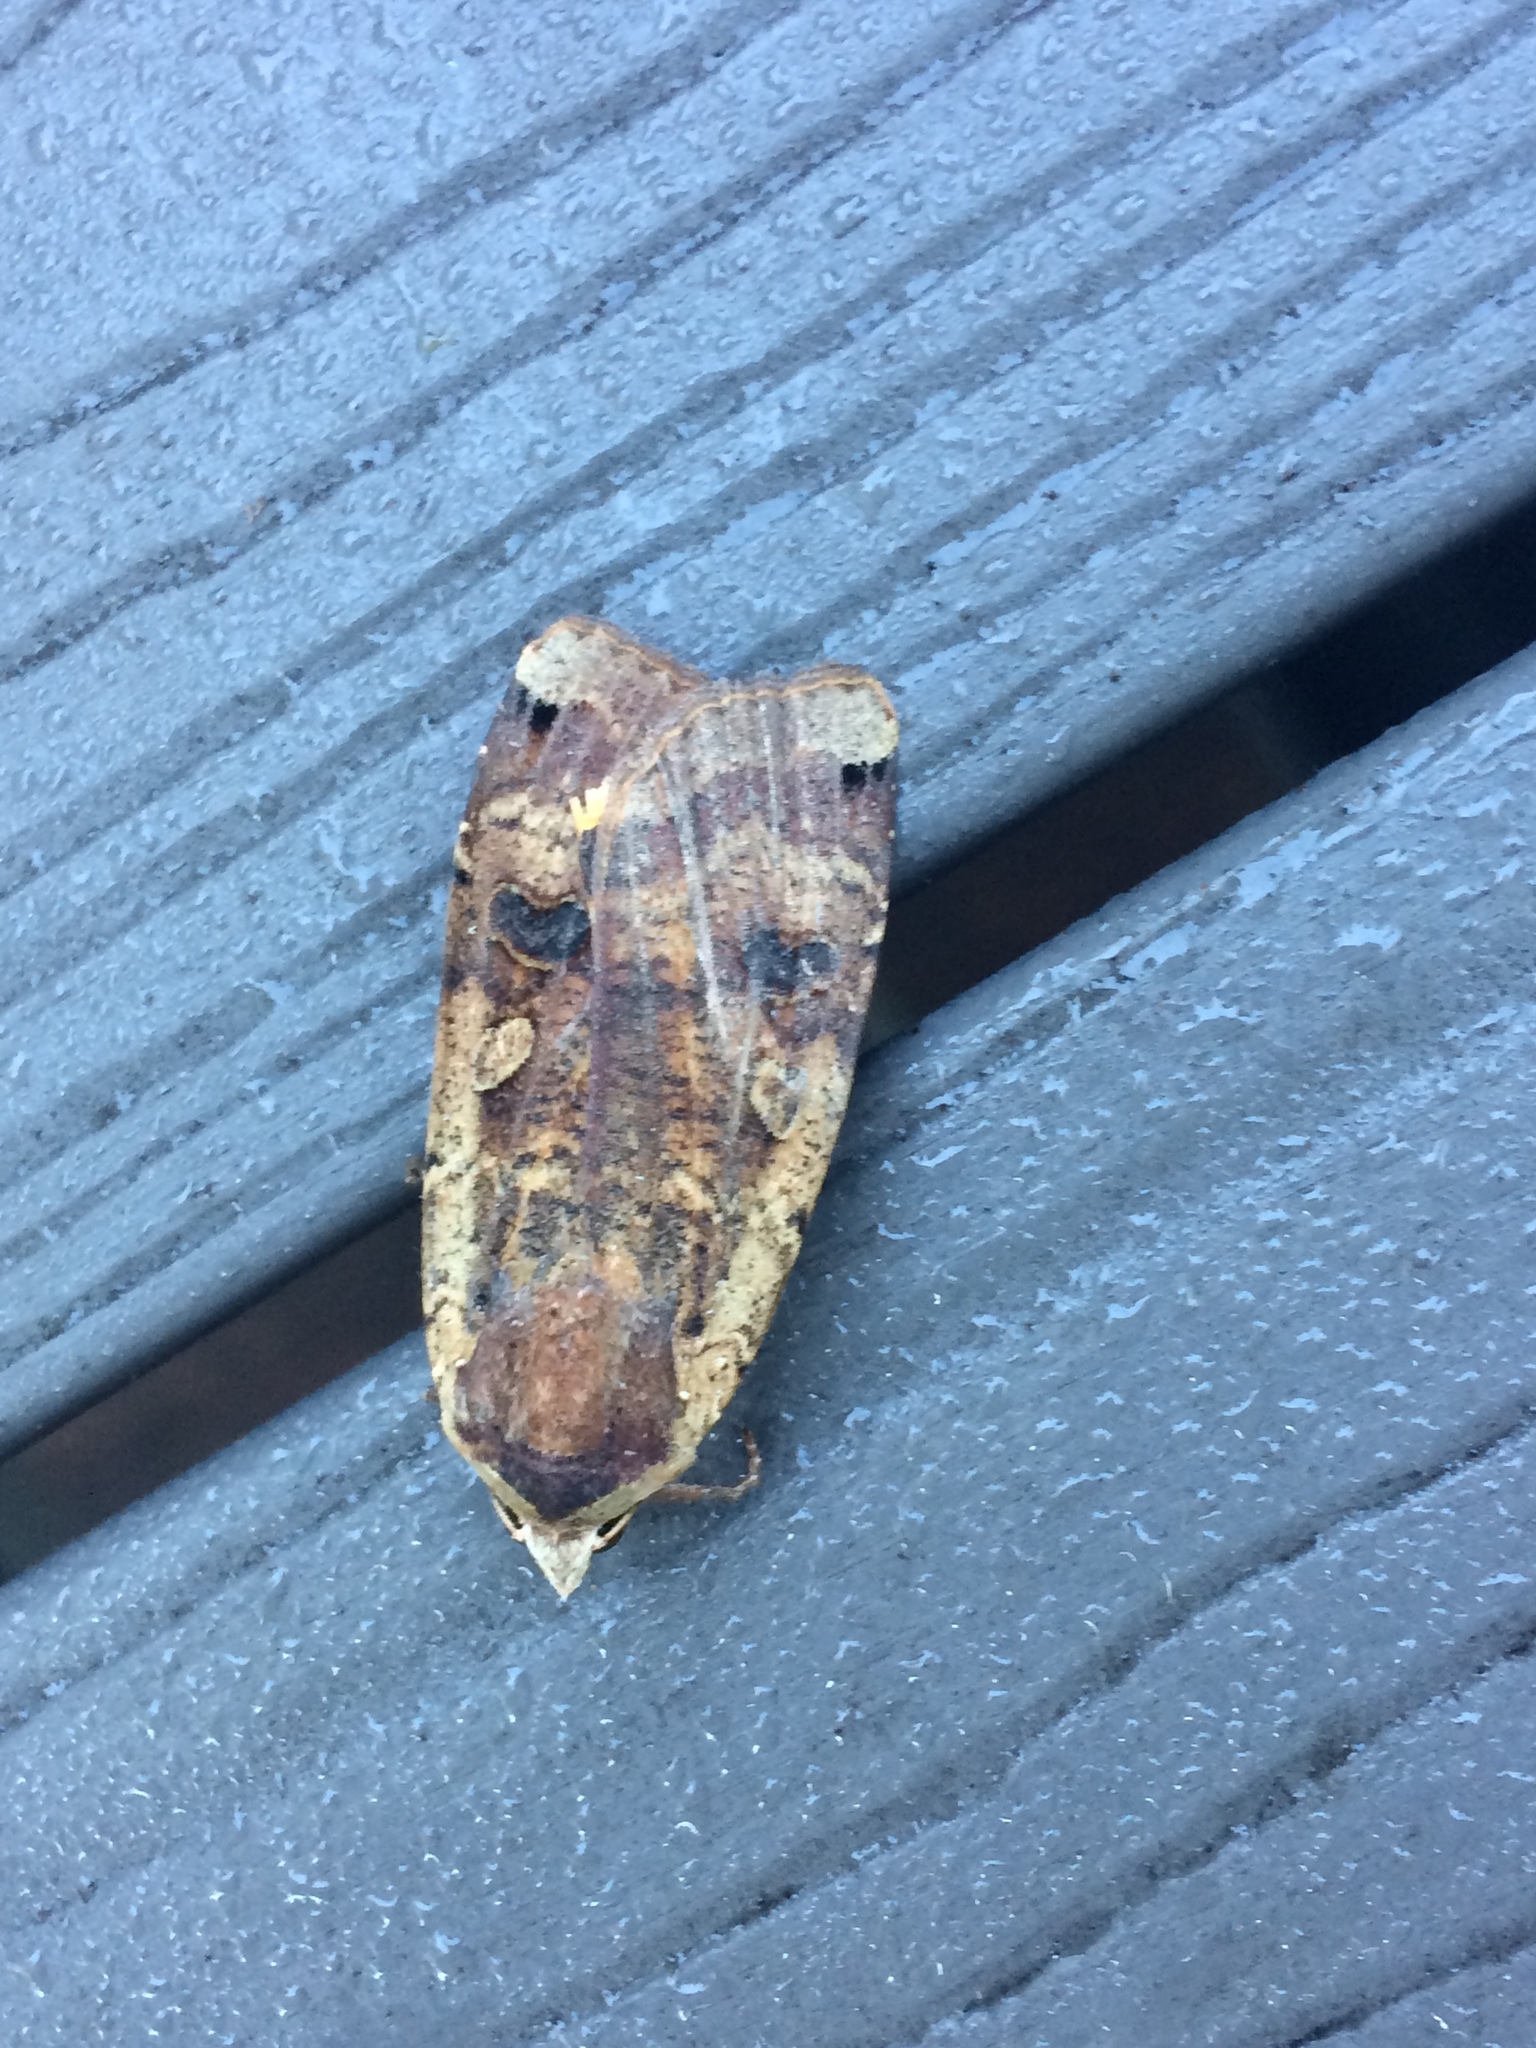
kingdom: Animalia
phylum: Arthropoda
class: Insecta
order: Lepidoptera
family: Noctuidae
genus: Noctua
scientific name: Noctua pronuba
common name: Large yellow underwing
